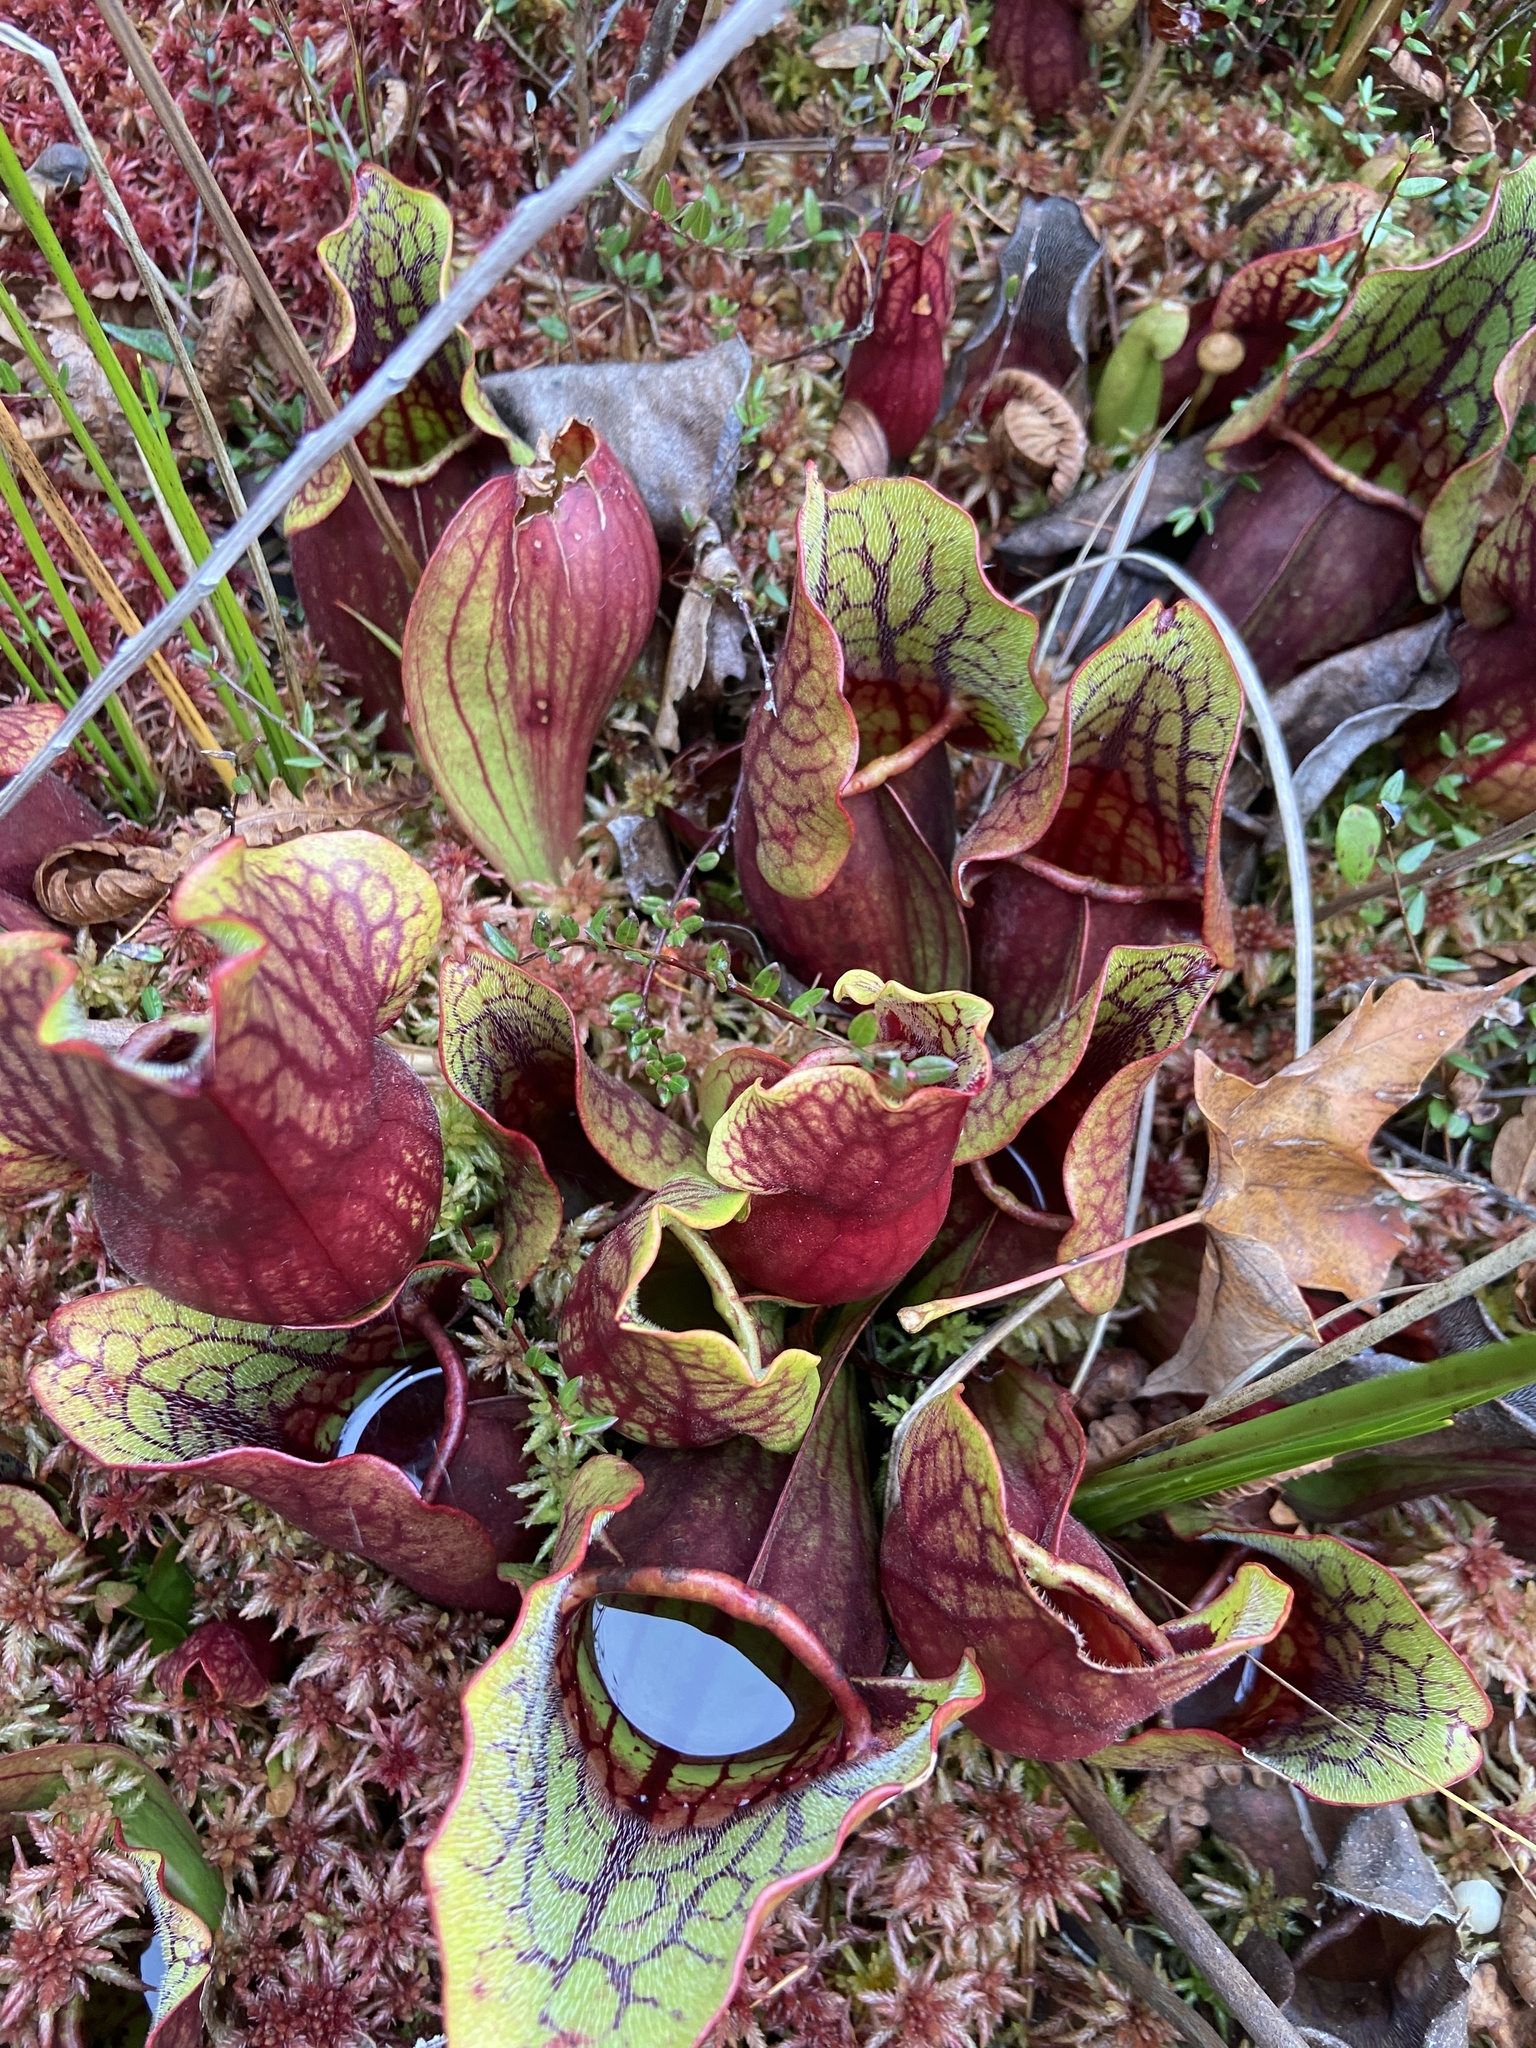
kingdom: Plantae
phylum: Tracheophyta
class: Magnoliopsida
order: Ericales
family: Sarraceniaceae
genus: Sarracenia
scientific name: Sarracenia purpurea
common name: Pitcherplant
